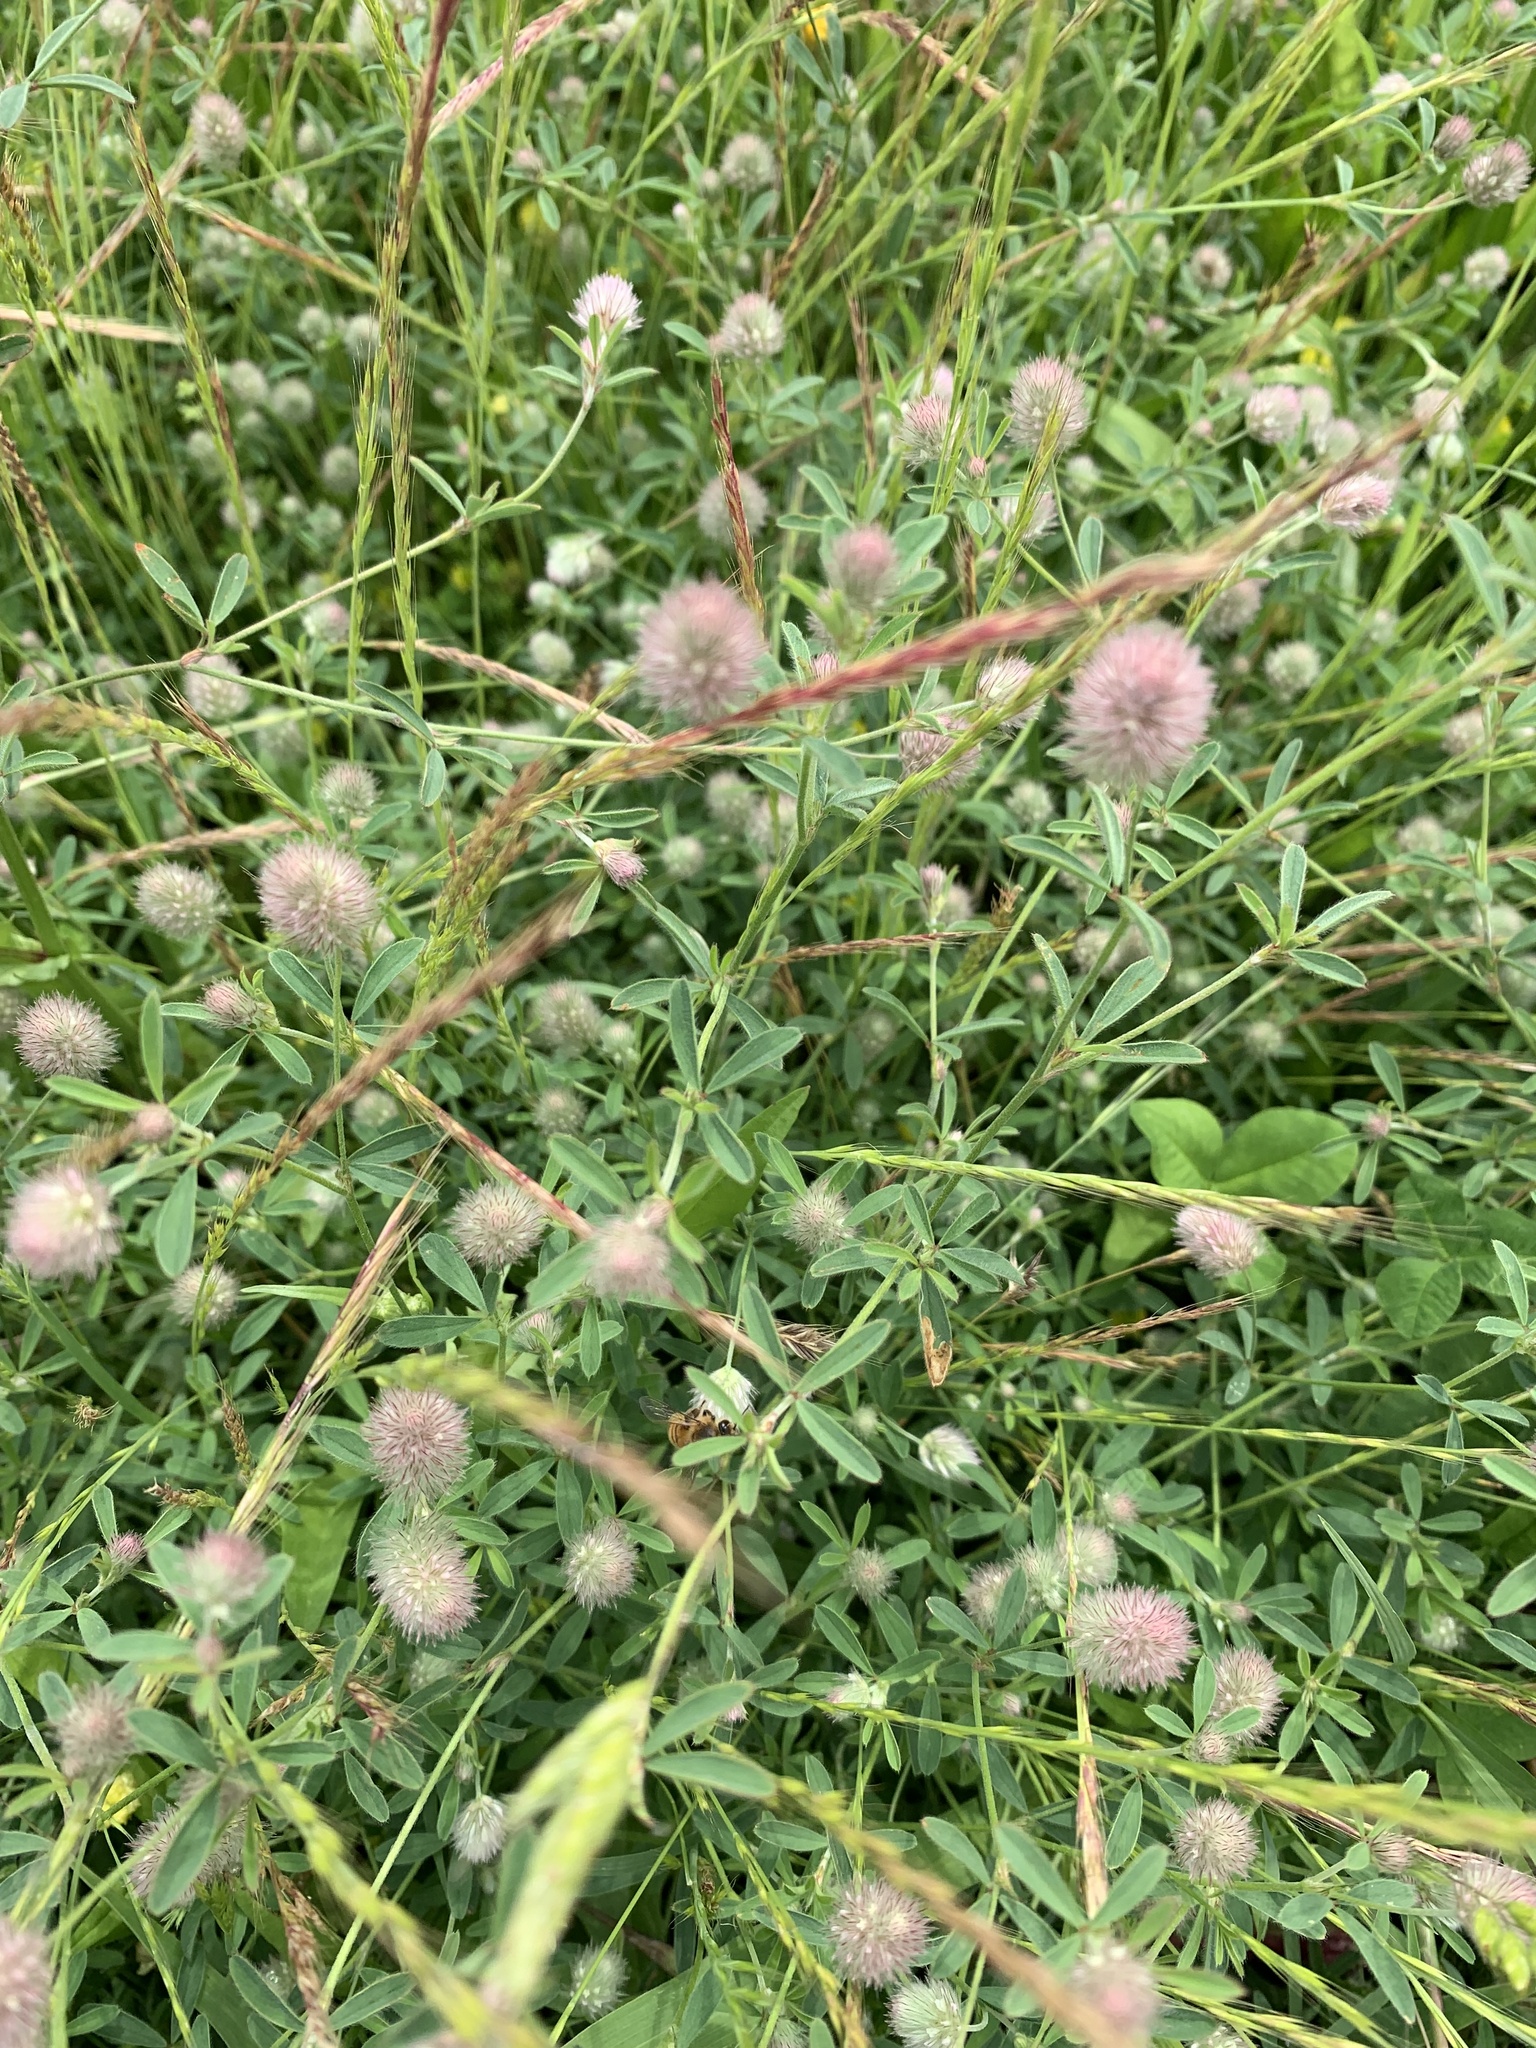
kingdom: Plantae
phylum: Tracheophyta
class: Magnoliopsida
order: Fabales
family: Fabaceae
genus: Trifolium
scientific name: Trifolium arvense
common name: Hare's-foot clover
